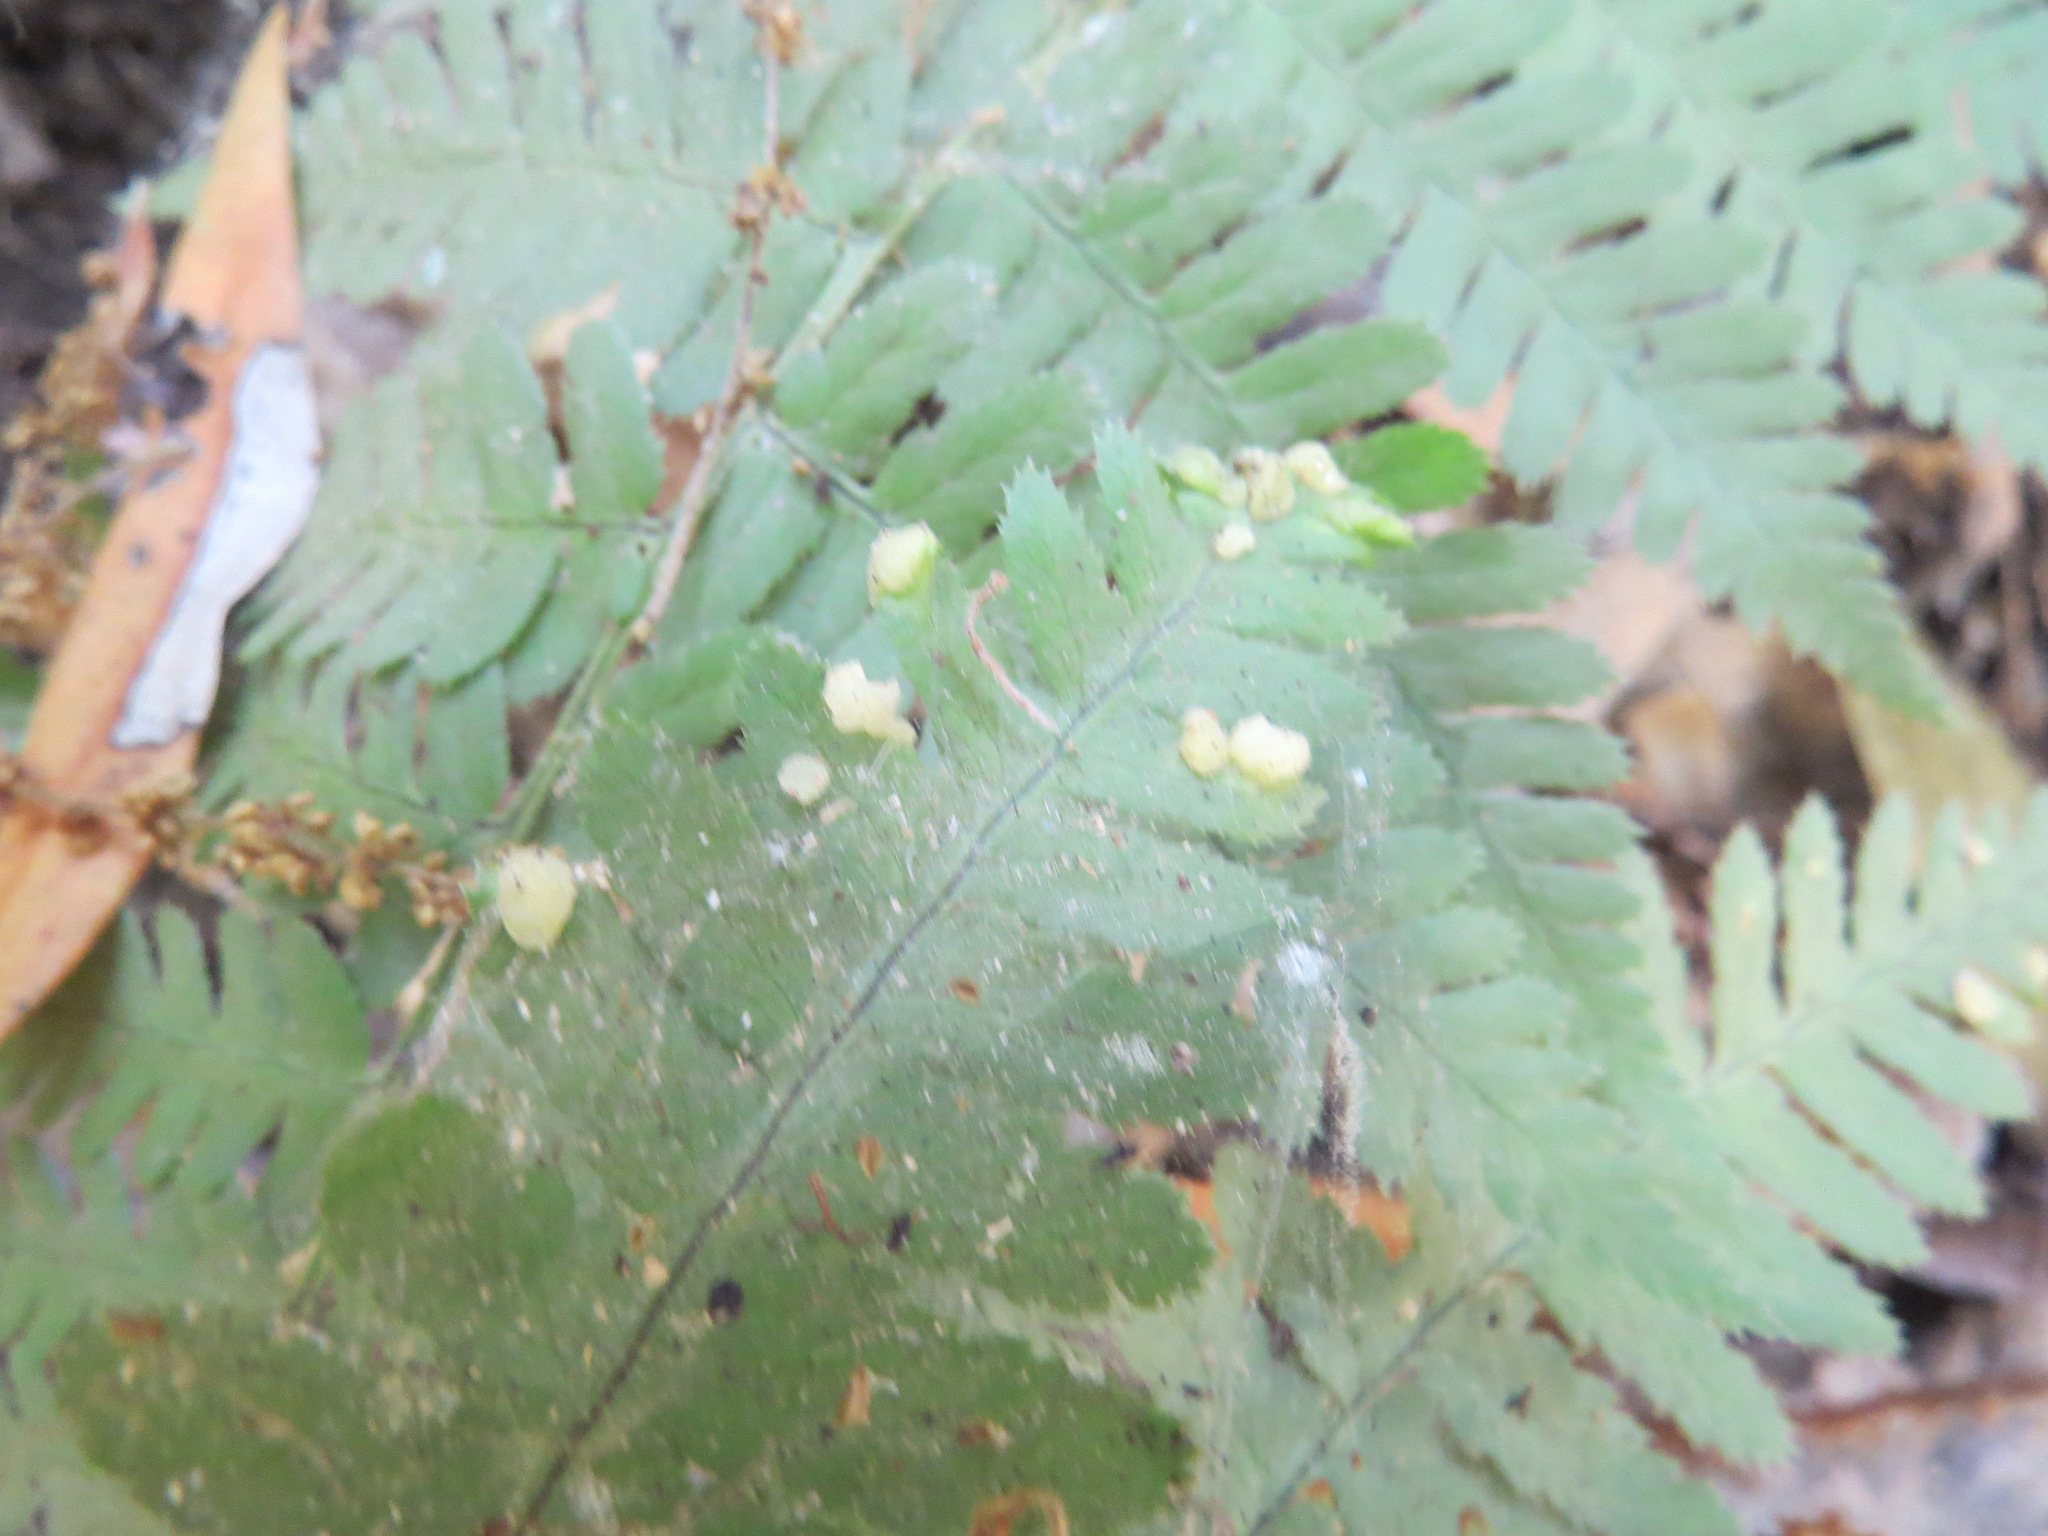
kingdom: Fungi
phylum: Ascomycota
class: Taphrinomycetes
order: Taphrinales
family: Taphrinaceae
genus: Taphrina
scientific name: Taphrina californica
